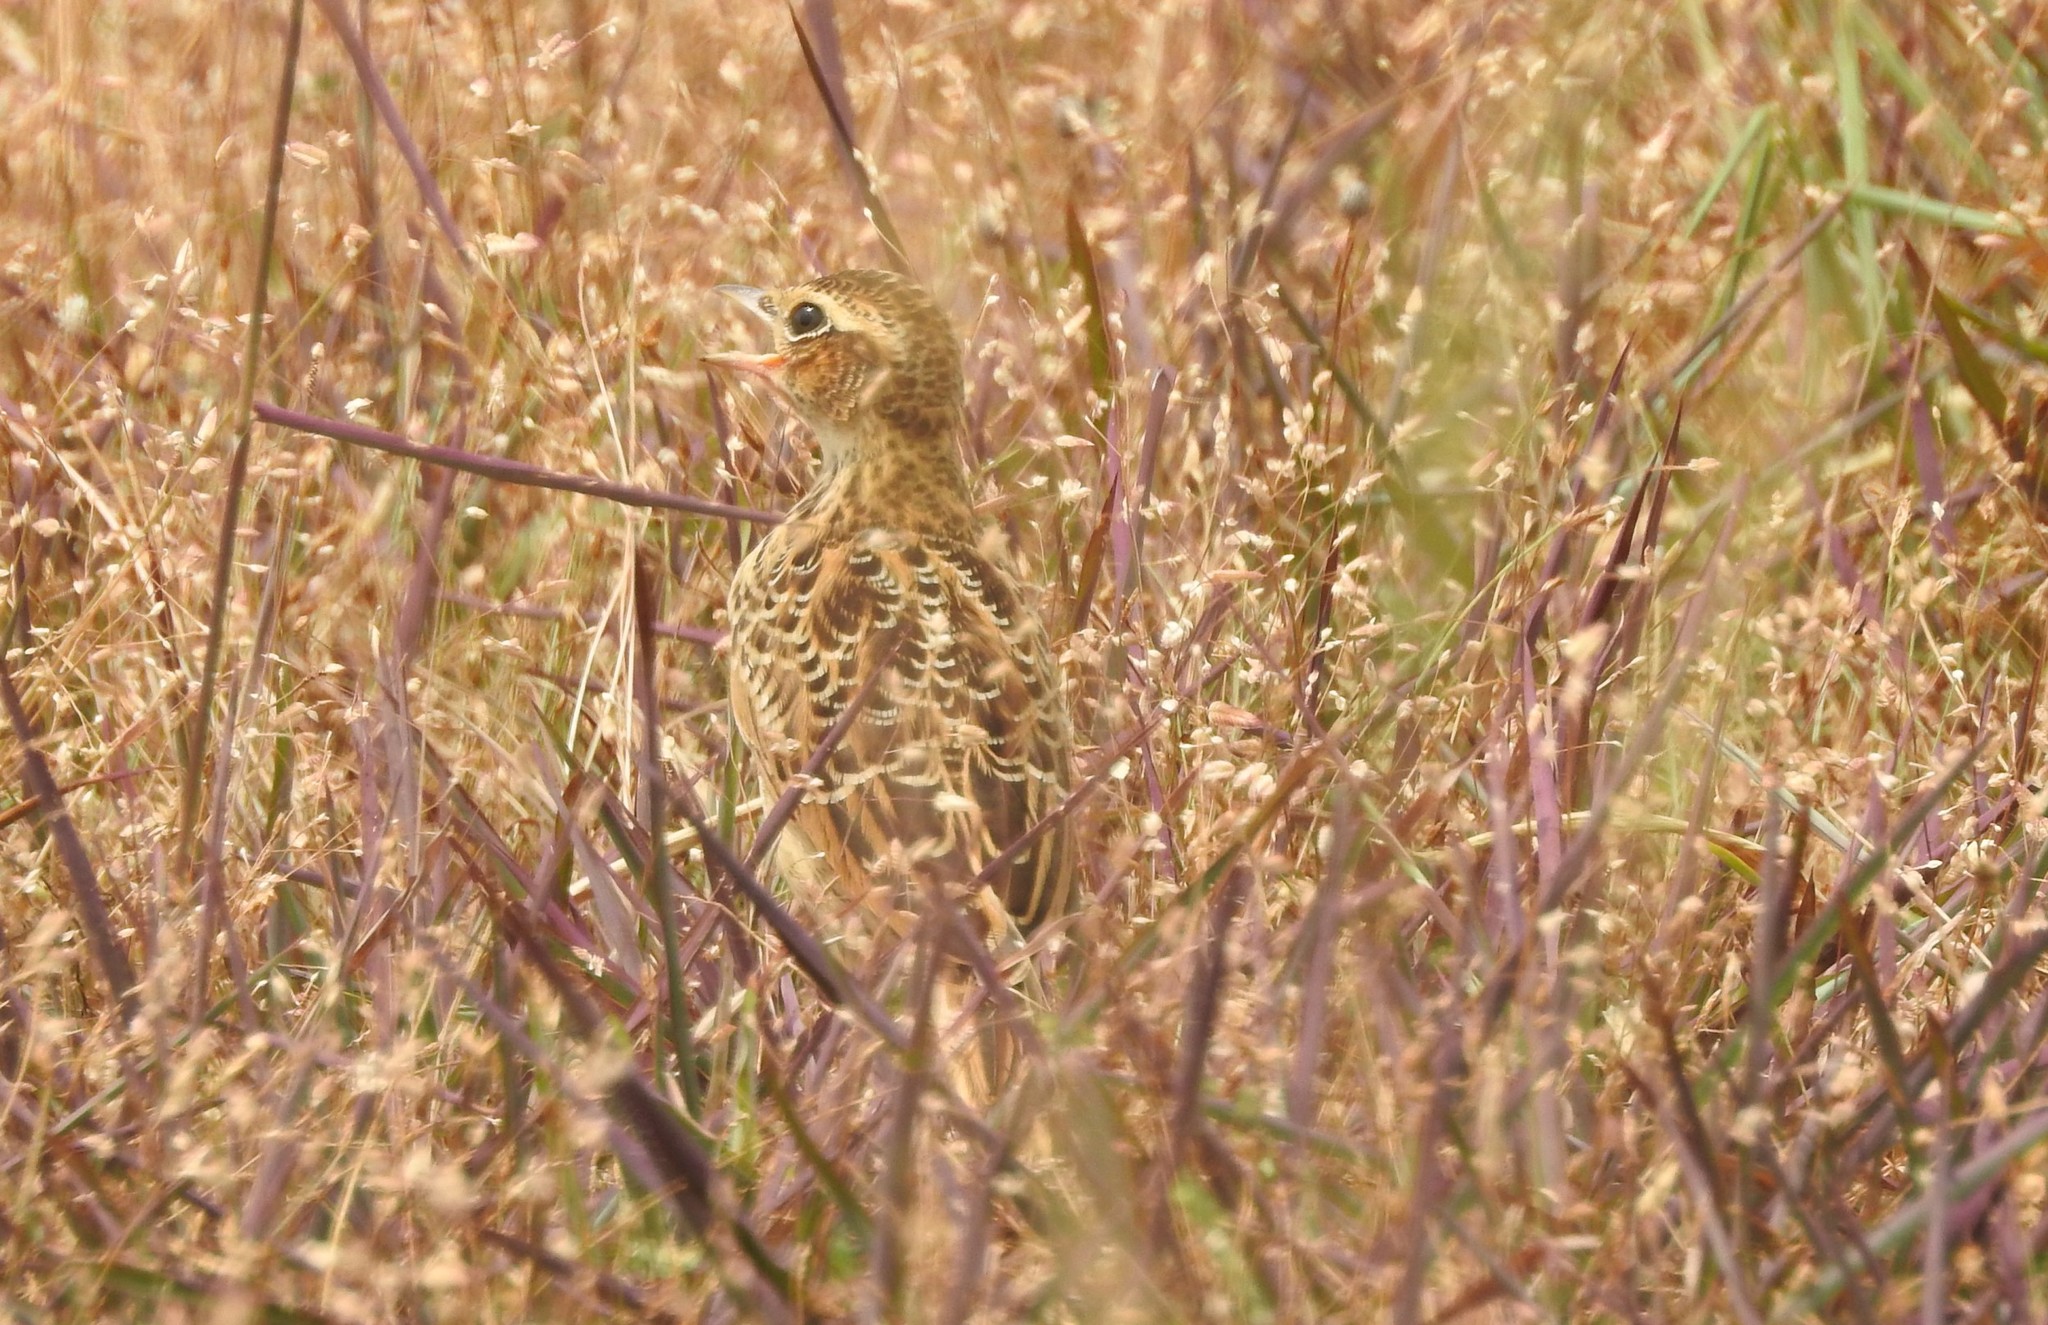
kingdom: Animalia
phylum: Chordata
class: Aves
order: Passeriformes
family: Alaudidae
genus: Alauda
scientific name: Alauda gulgula
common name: Oriental skylark
